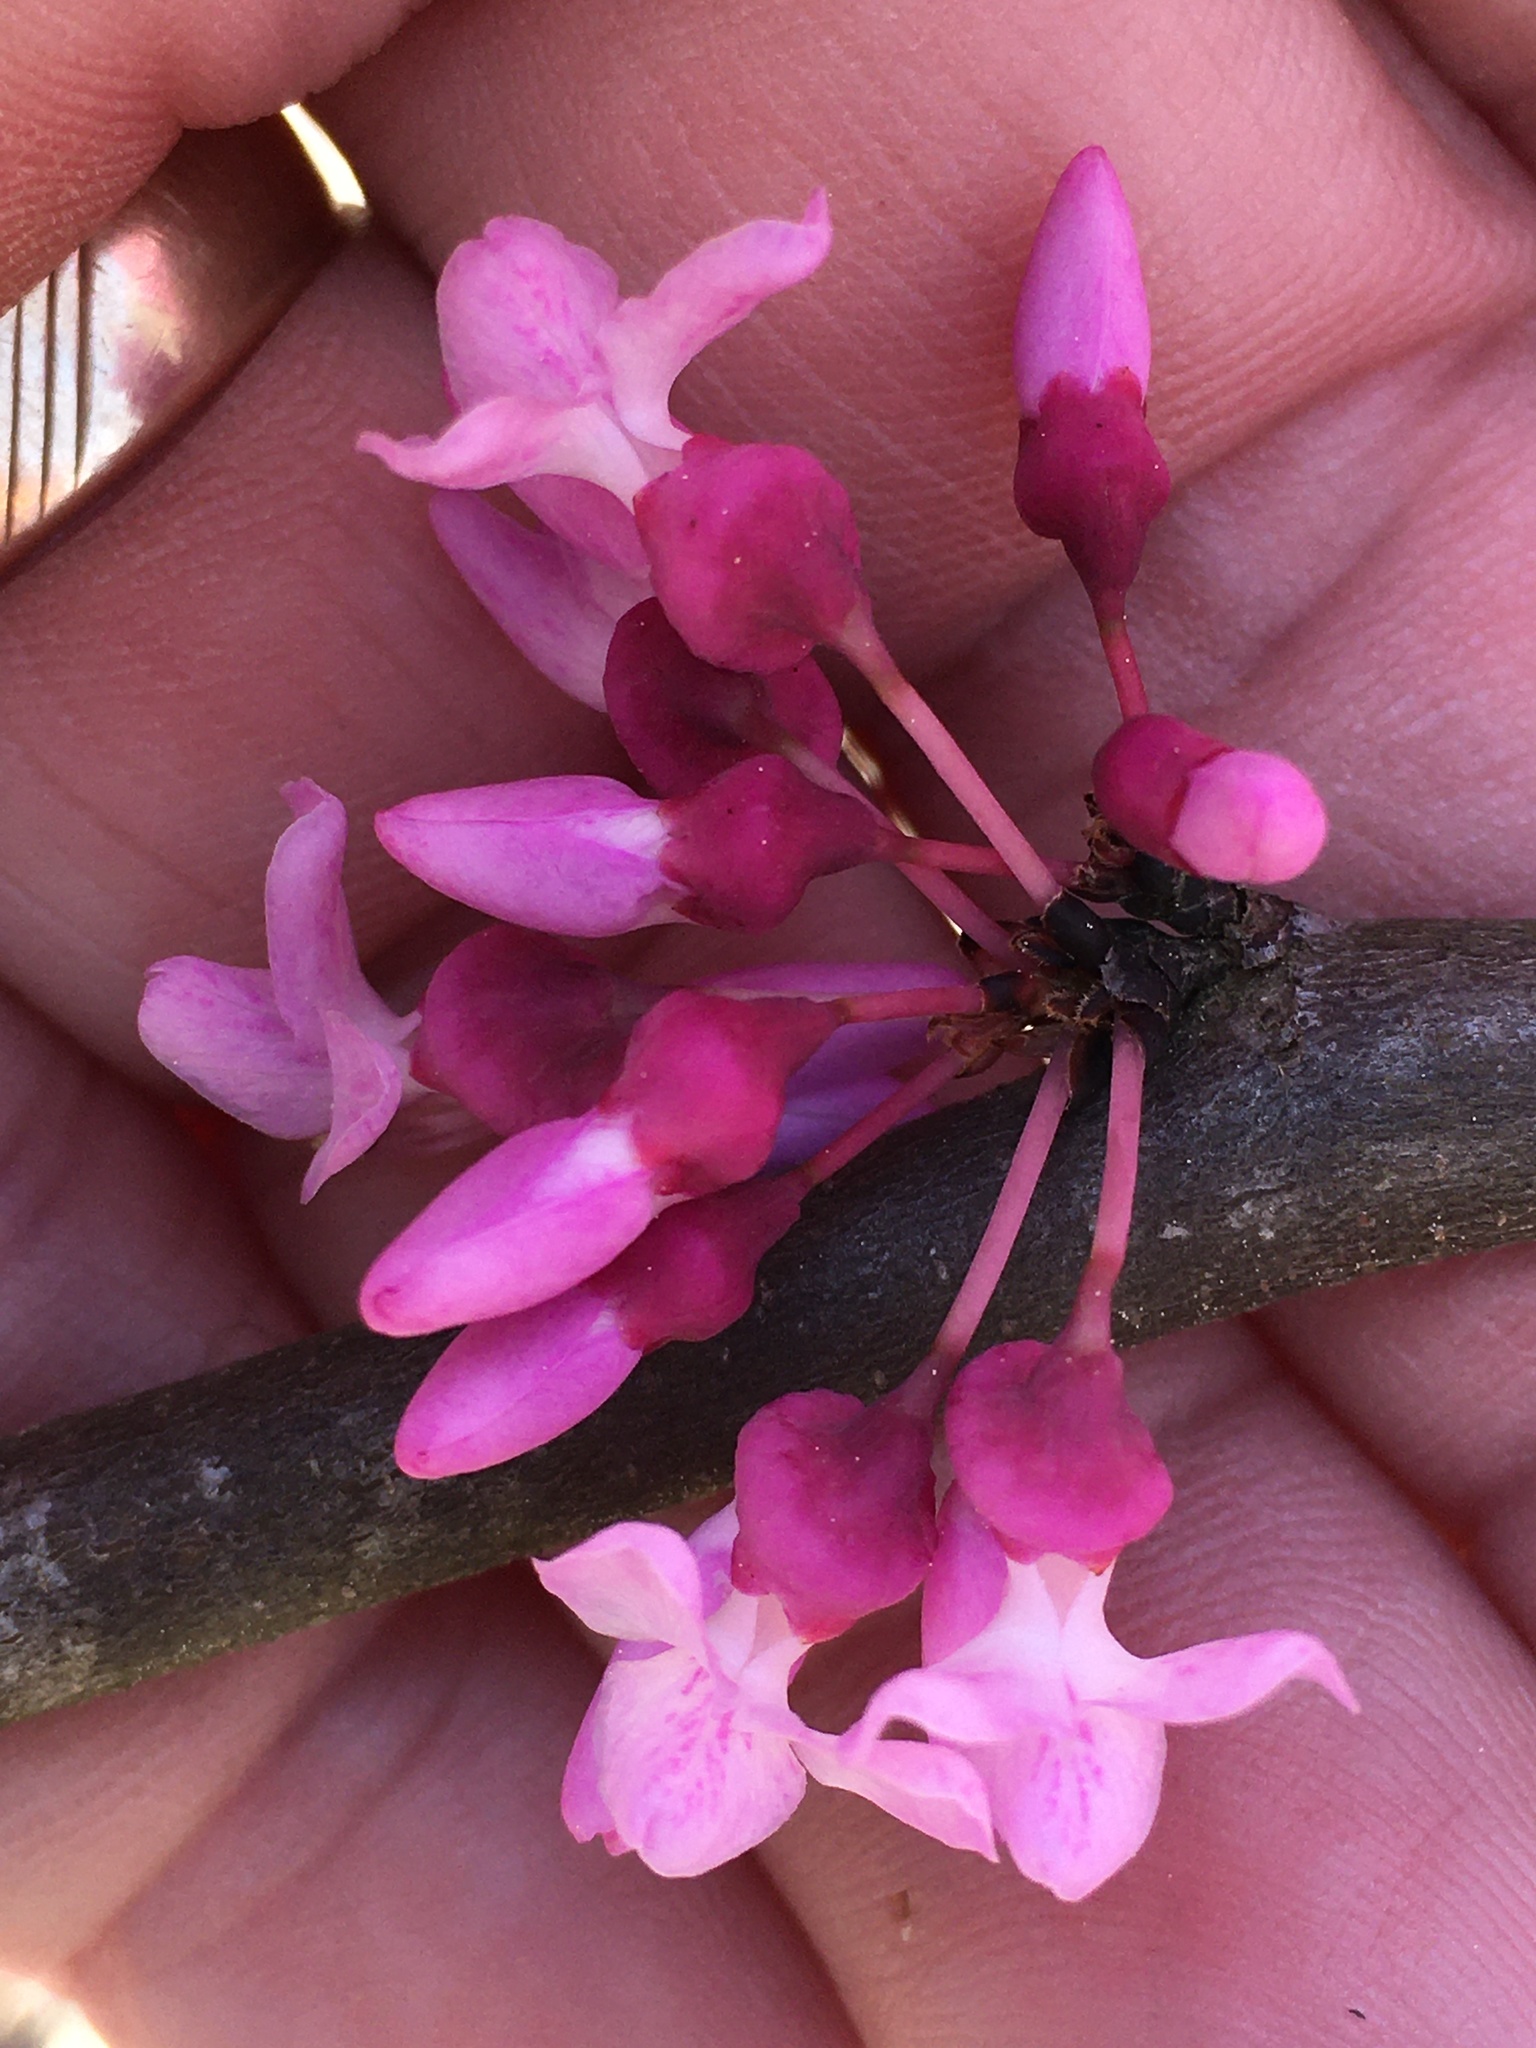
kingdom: Plantae
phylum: Tracheophyta
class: Magnoliopsida
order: Fabales
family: Fabaceae
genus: Cercis
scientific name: Cercis canadensis
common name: Eastern redbud
